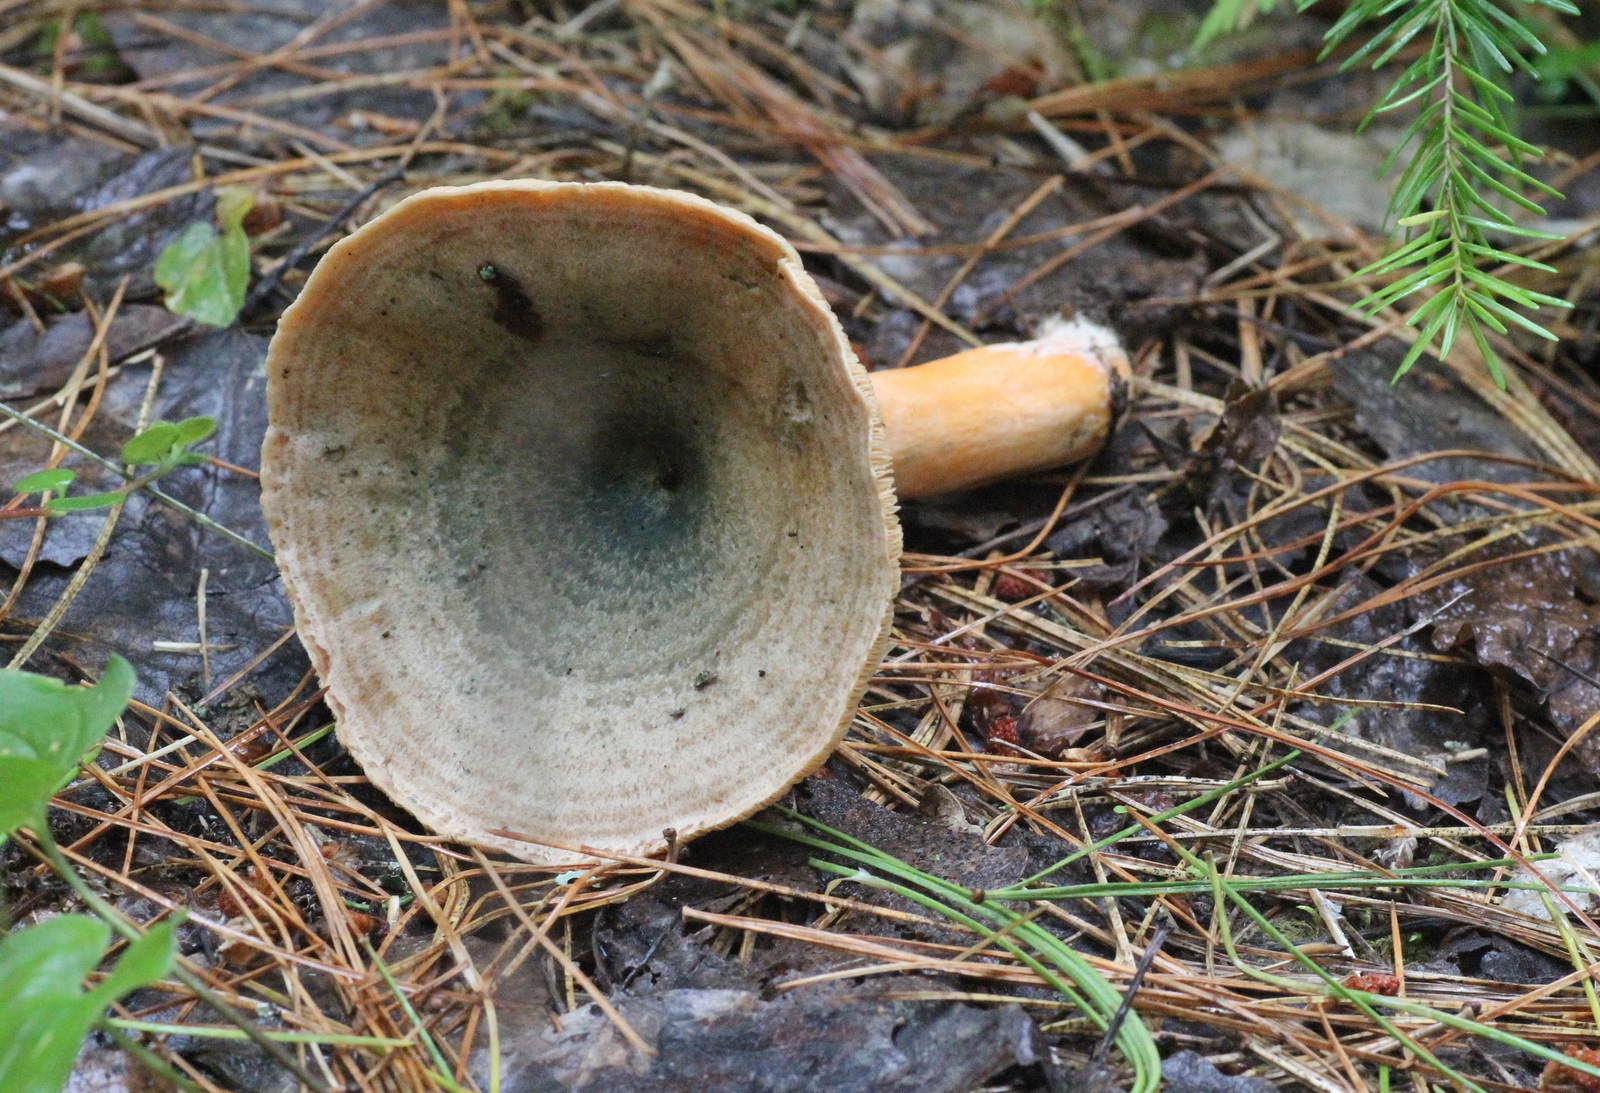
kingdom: Fungi
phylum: Basidiomycota
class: Agaricomycetes
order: Russulales
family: Russulaceae
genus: Lactarius
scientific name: Lactarius deterrimus
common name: False saffron milkcap
